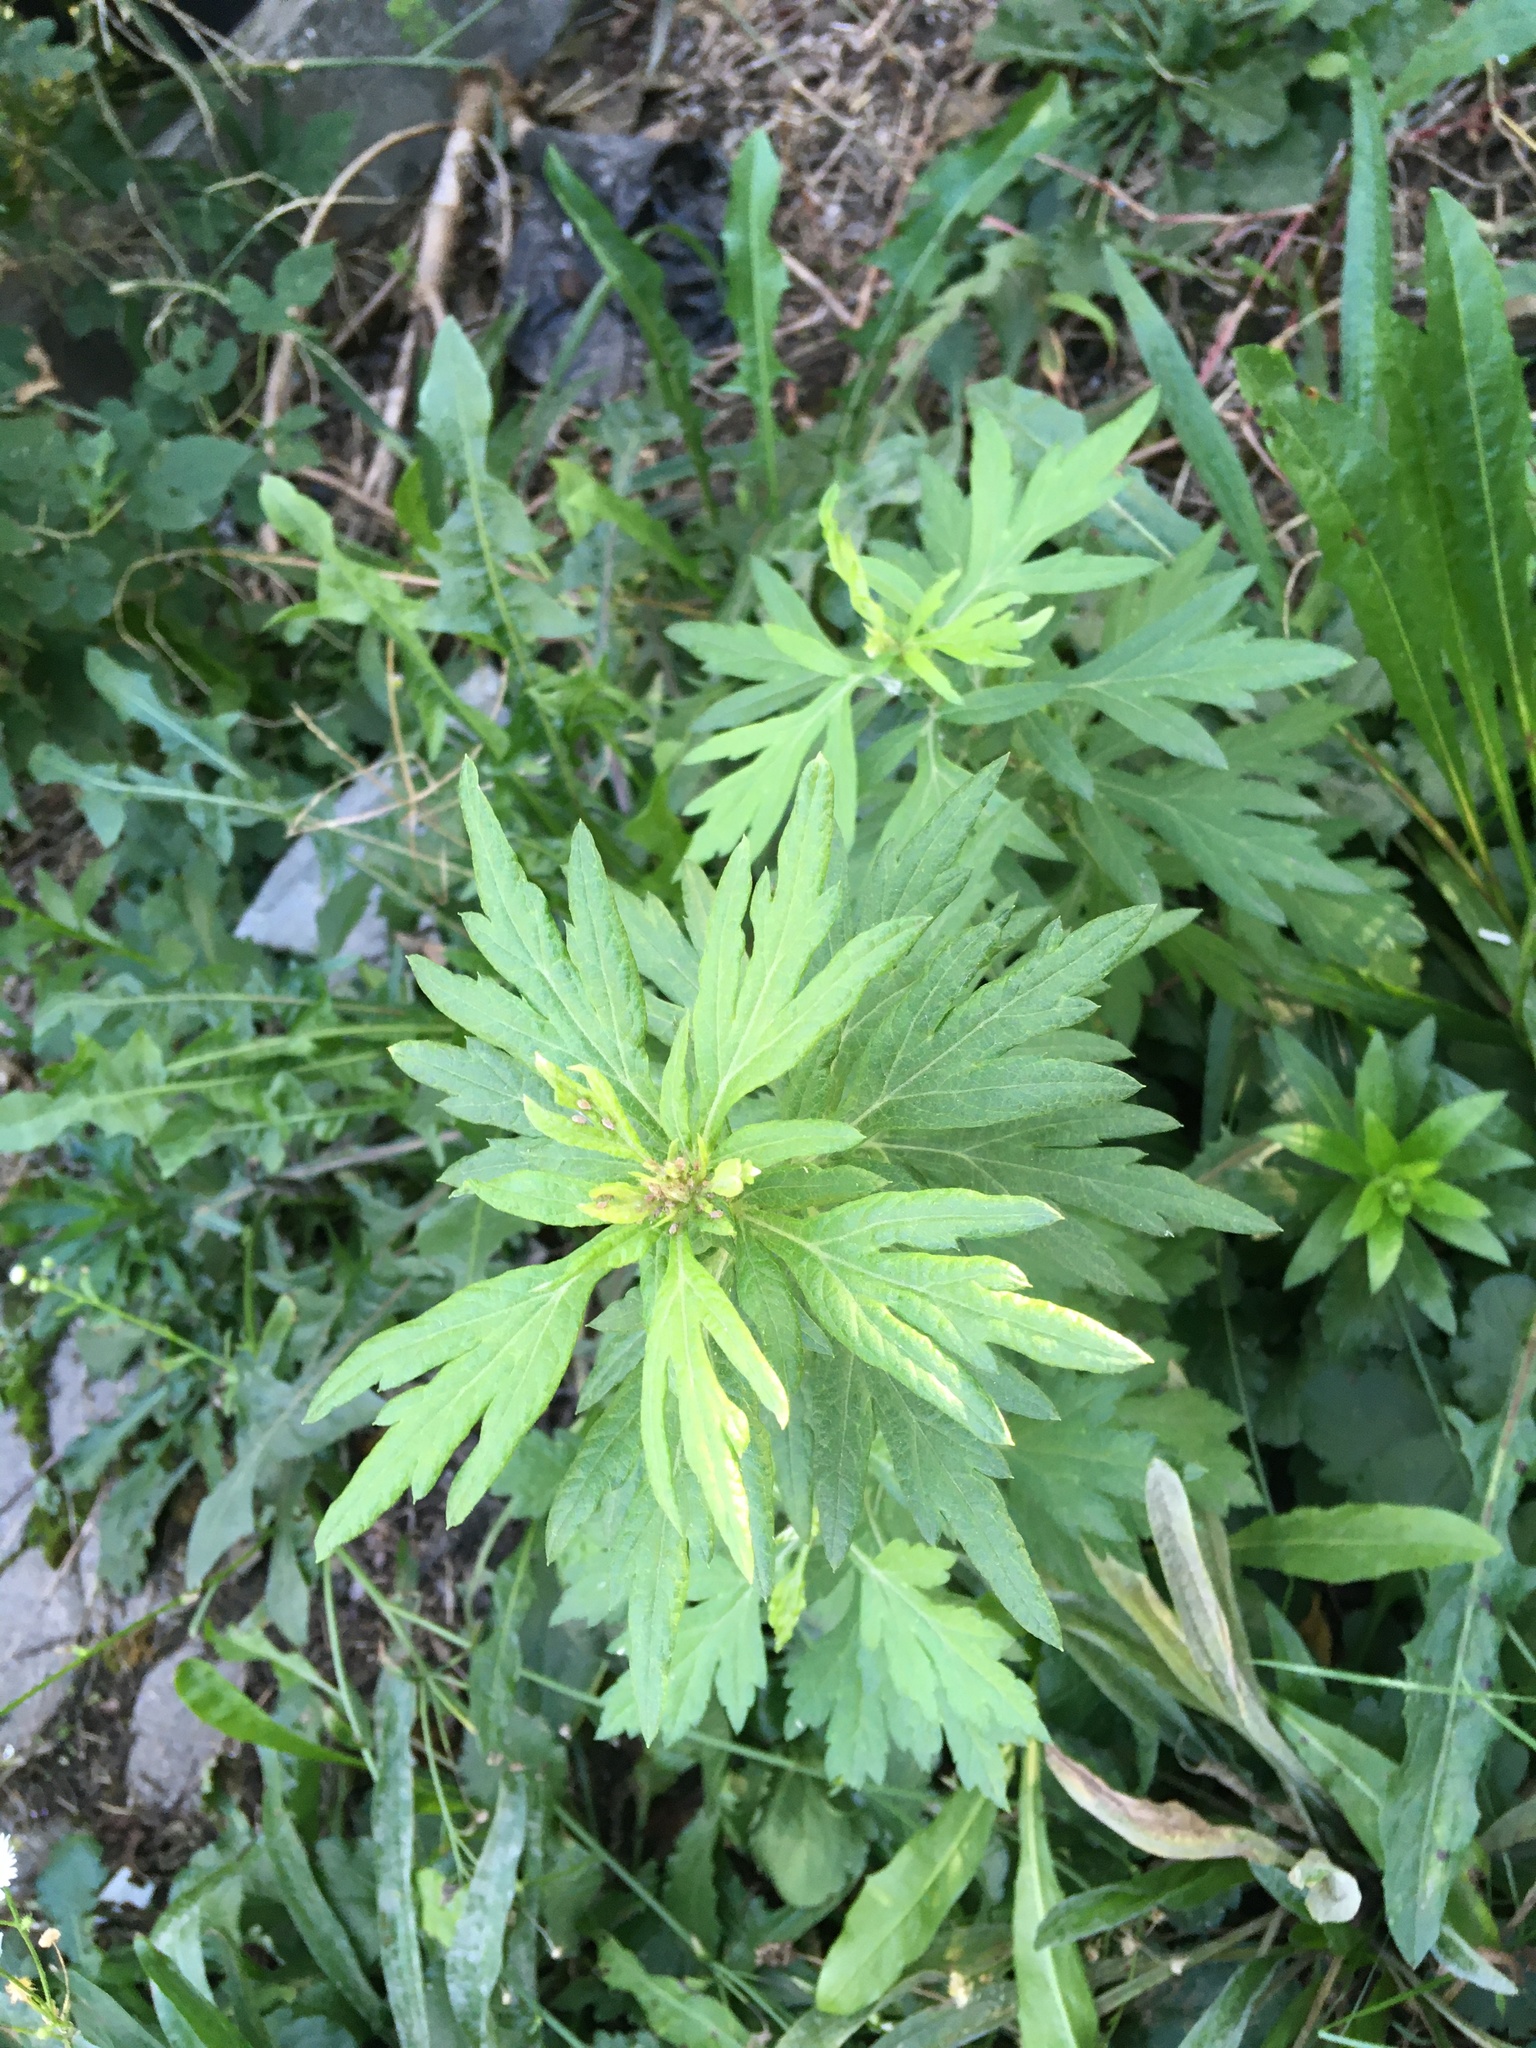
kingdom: Plantae
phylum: Tracheophyta
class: Magnoliopsida
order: Asterales
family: Asteraceae
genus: Artemisia
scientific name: Artemisia vulgaris
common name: Mugwort
